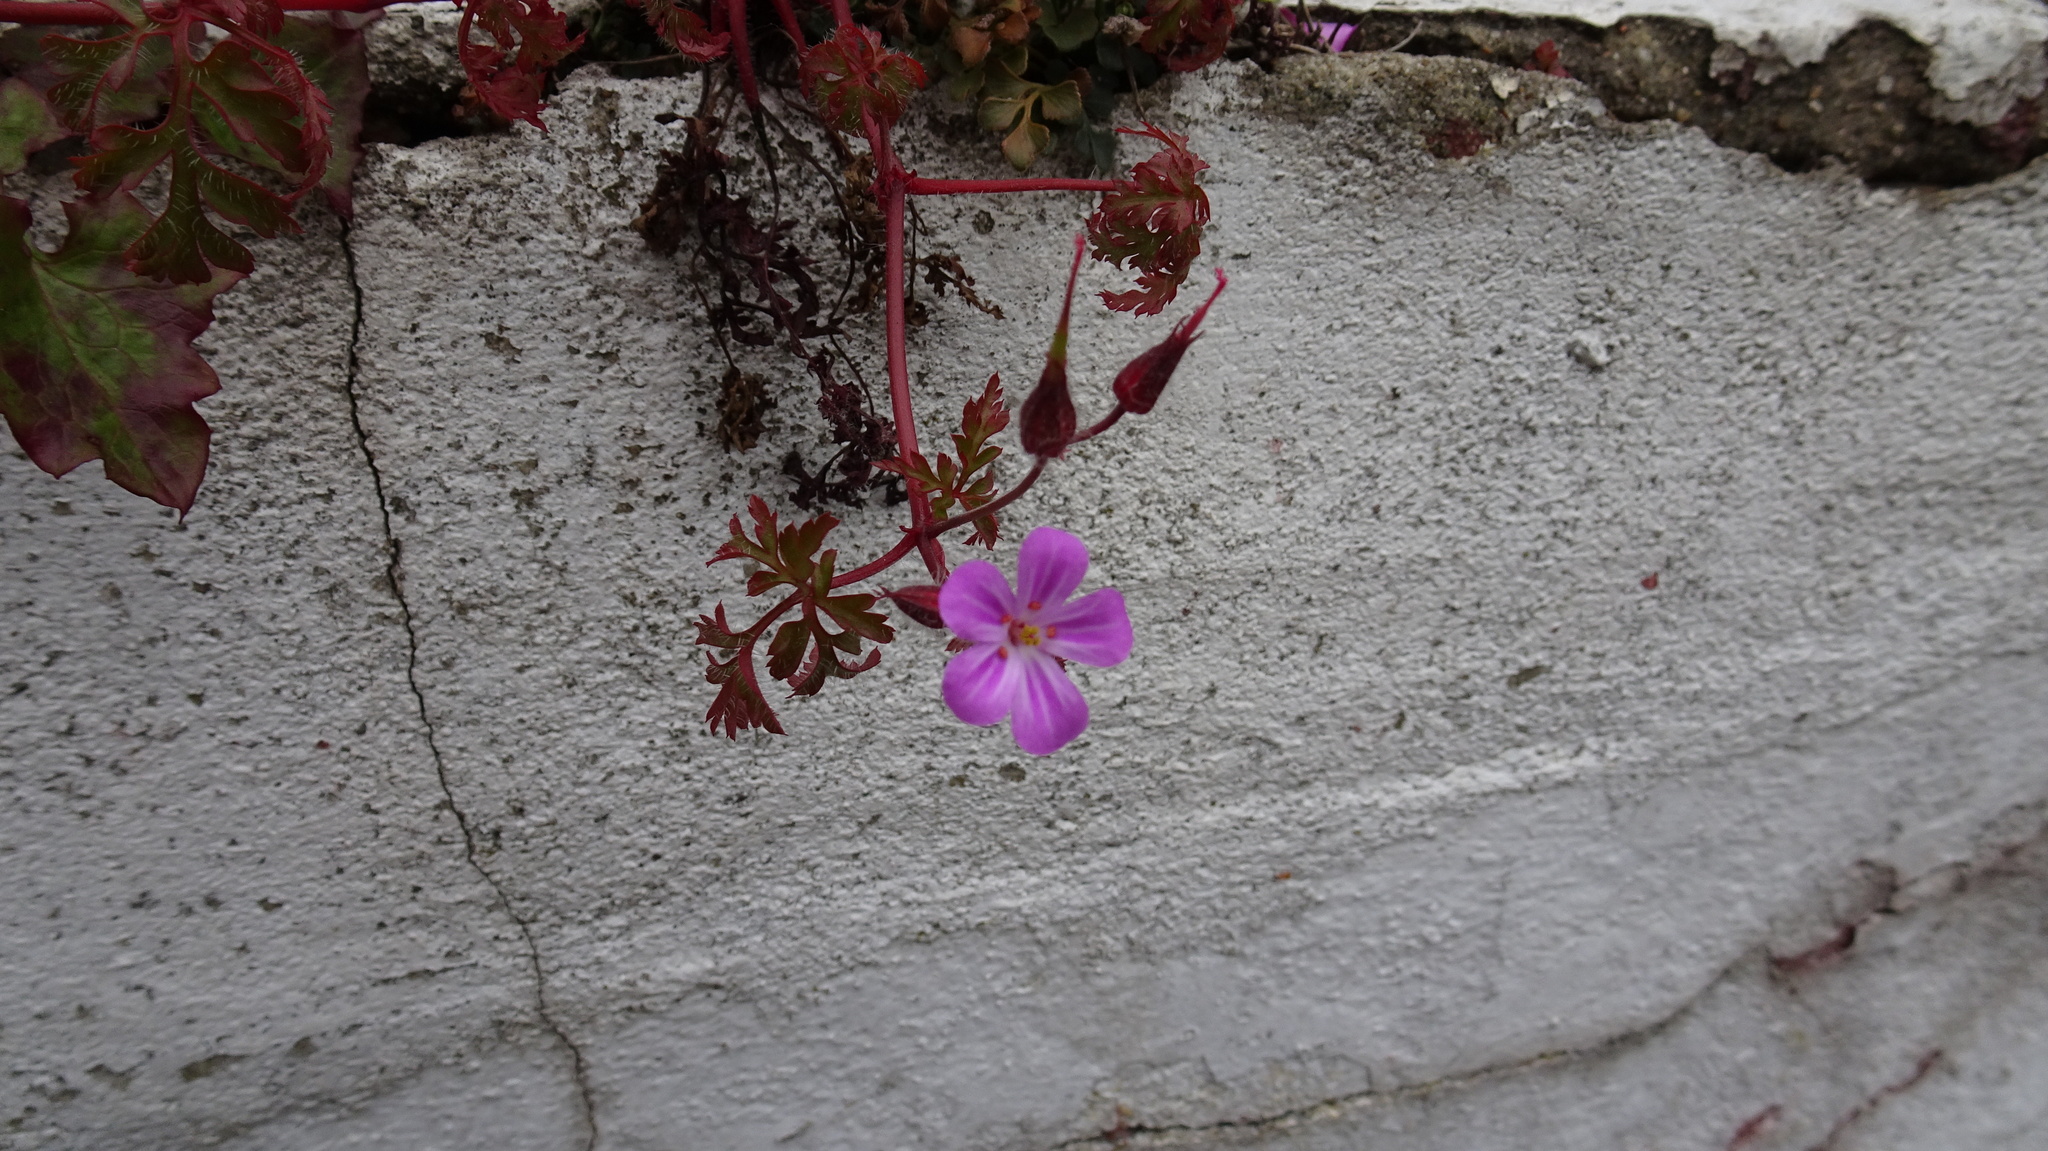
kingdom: Plantae
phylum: Tracheophyta
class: Magnoliopsida
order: Geraniales
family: Geraniaceae
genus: Geranium
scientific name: Geranium robertianum
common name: Herb-robert
